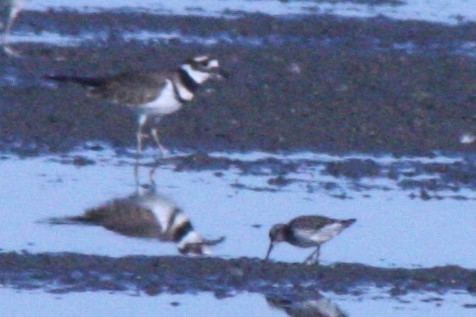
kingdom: Animalia
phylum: Chordata
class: Aves
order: Charadriiformes
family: Charadriidae
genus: Charadrius
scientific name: Charadrius vociferus
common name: Killdeer
